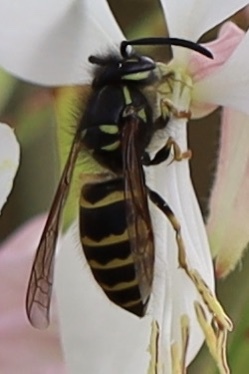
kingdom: Animalia
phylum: Arthropoda
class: Insecta
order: Hymenoptera
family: Vespidae
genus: Vespula
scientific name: Vespula alascensis
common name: Alaska yellowjacket
